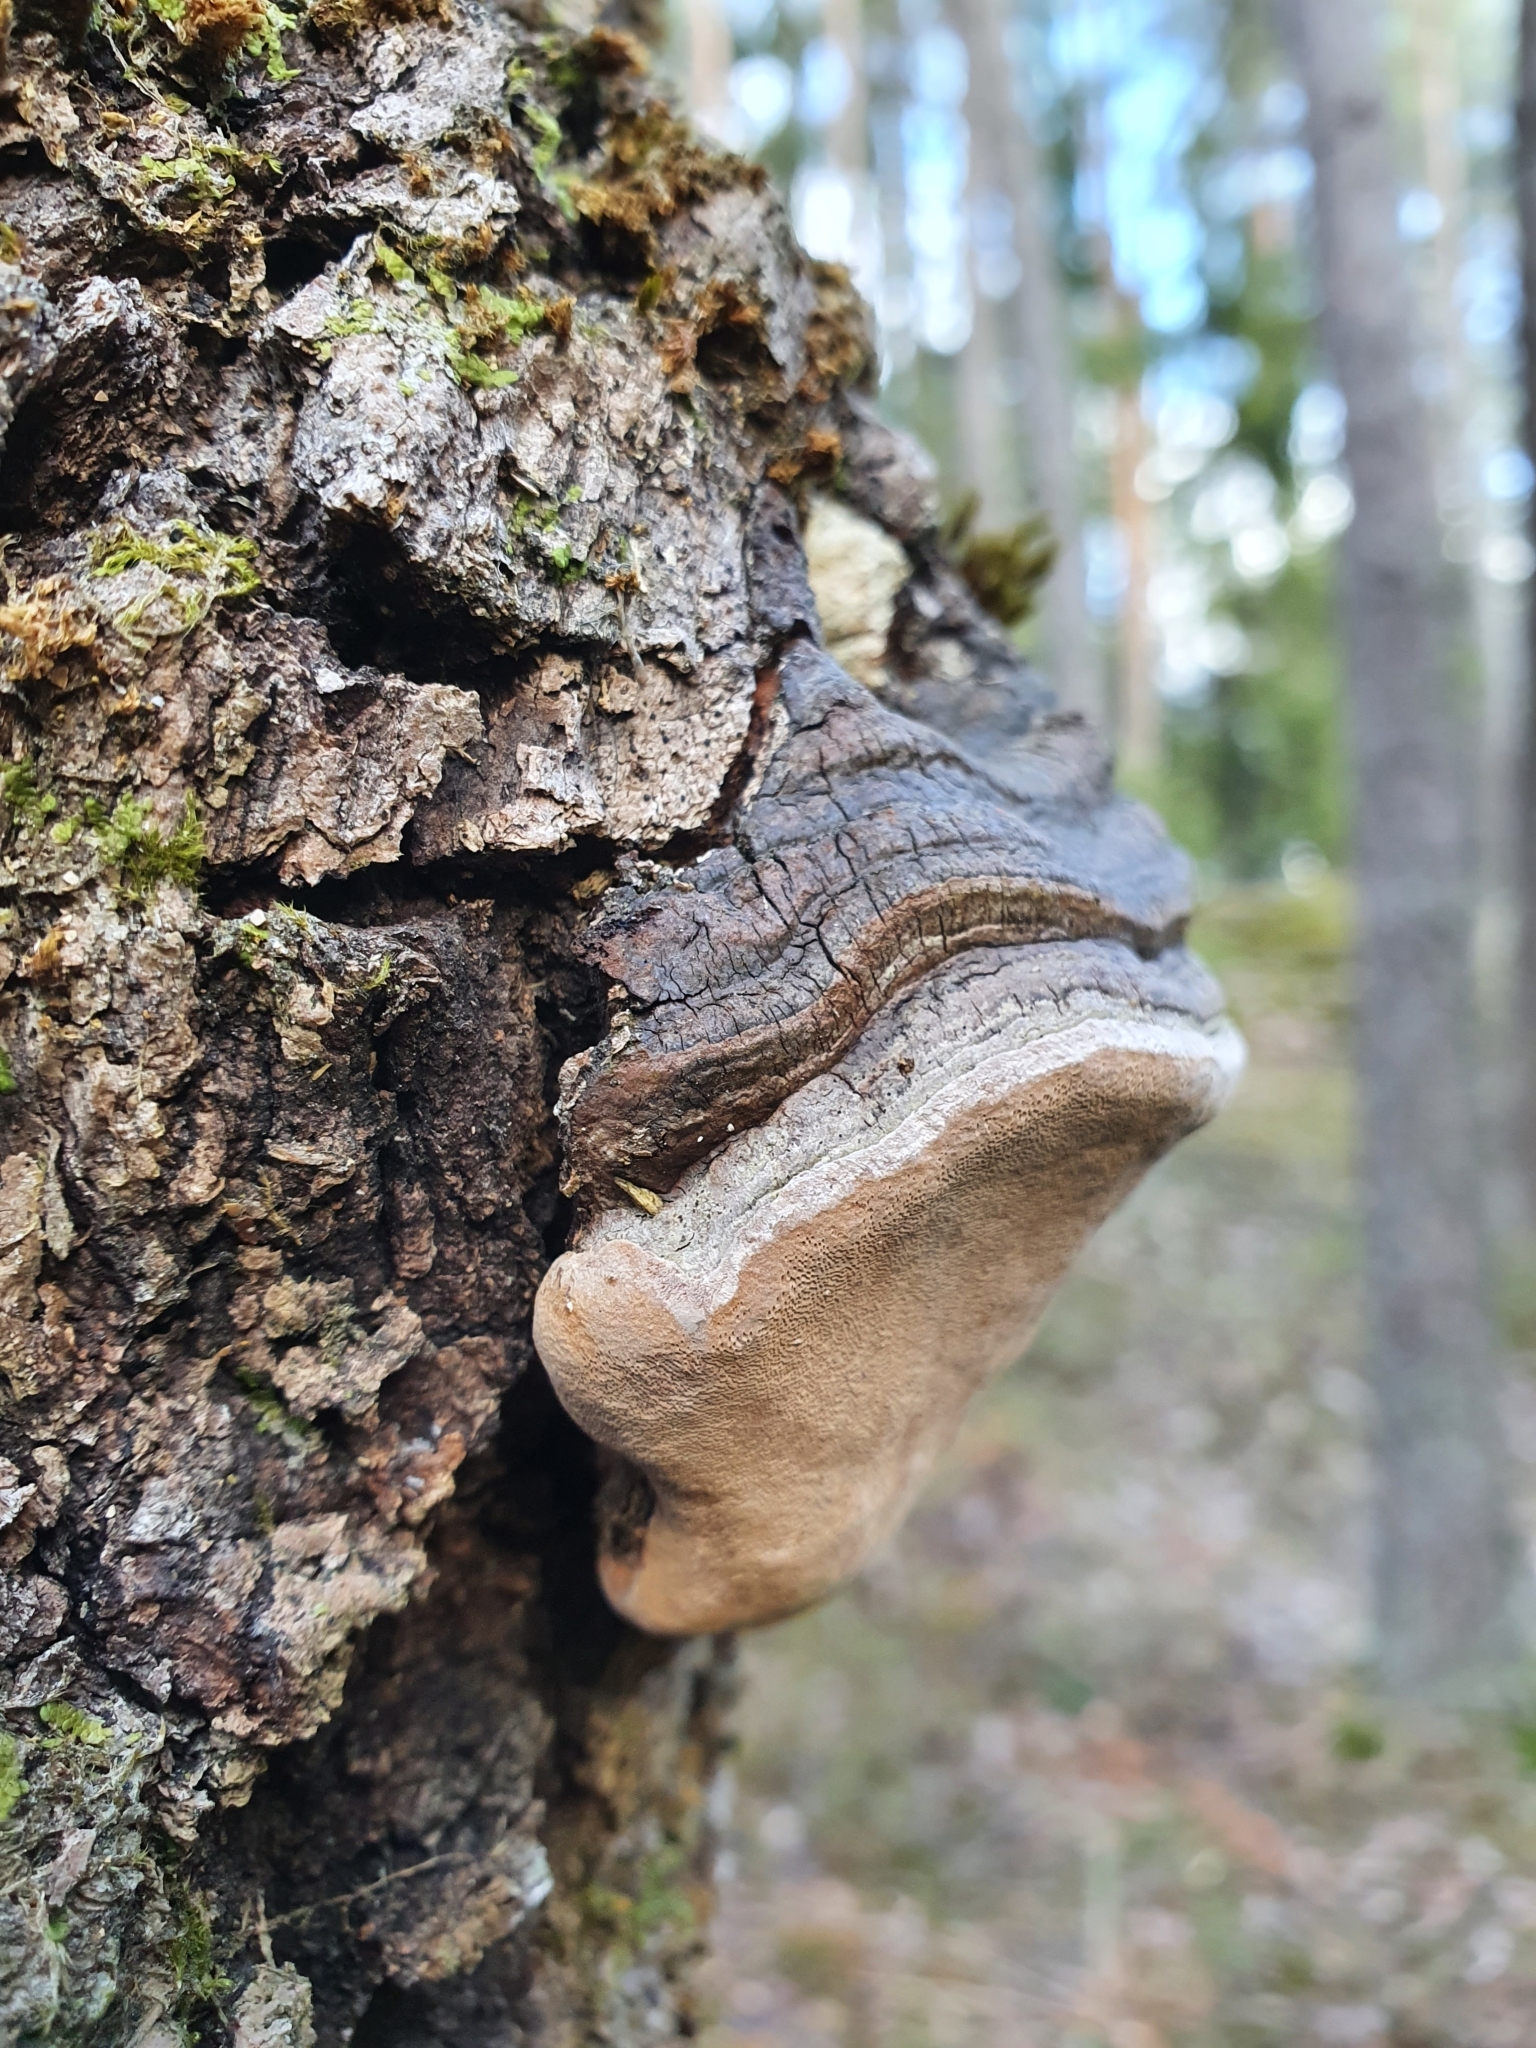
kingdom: Fungi
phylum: Basidiomycota
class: Agaricomycetes
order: Hymenochaetales
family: Hymenochaetaceae
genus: Phellinus
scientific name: Phellinus tremulae
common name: Aspen bracket
